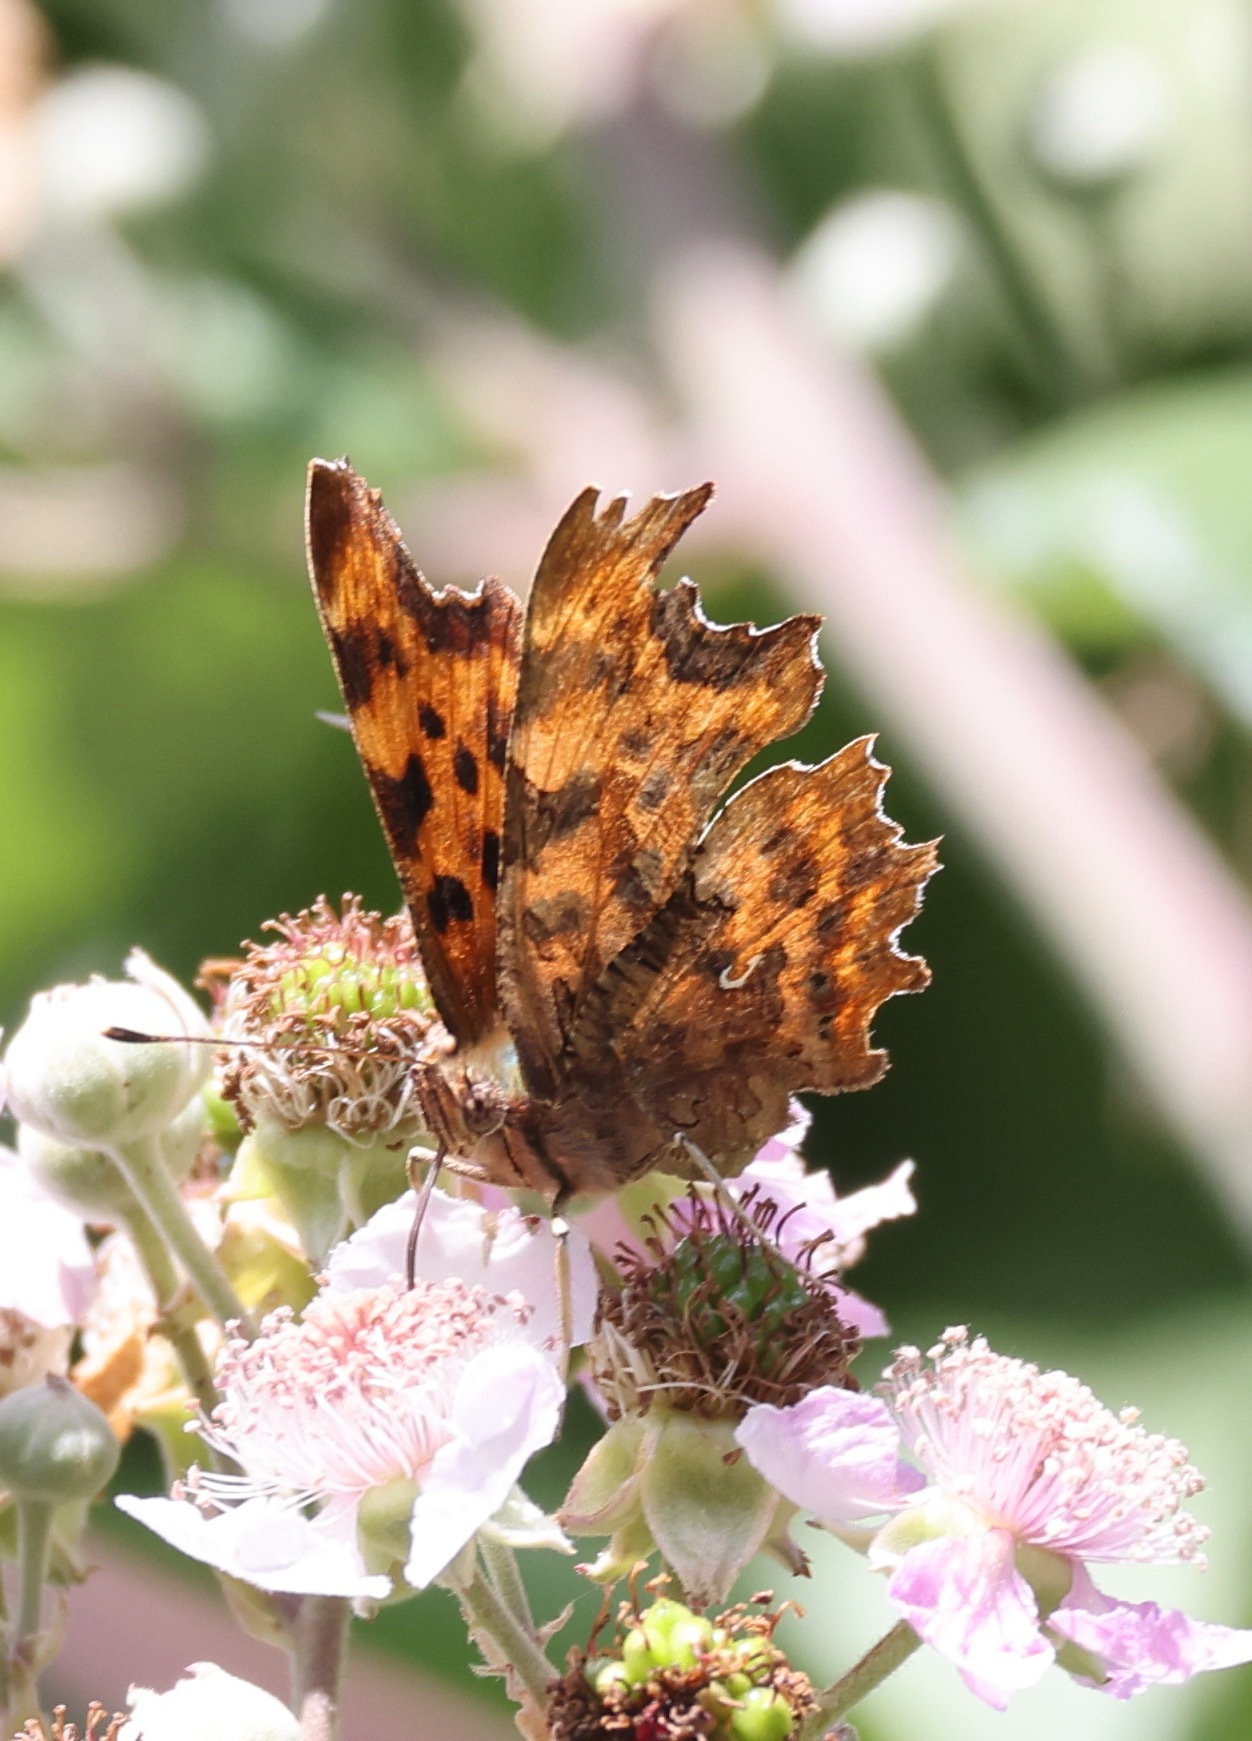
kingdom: Animalia
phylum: Arthropoda
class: Insecta
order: Lepidoptera
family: Nymphalidae
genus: Polygonia
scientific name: Polygonia c-album
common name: Comma
